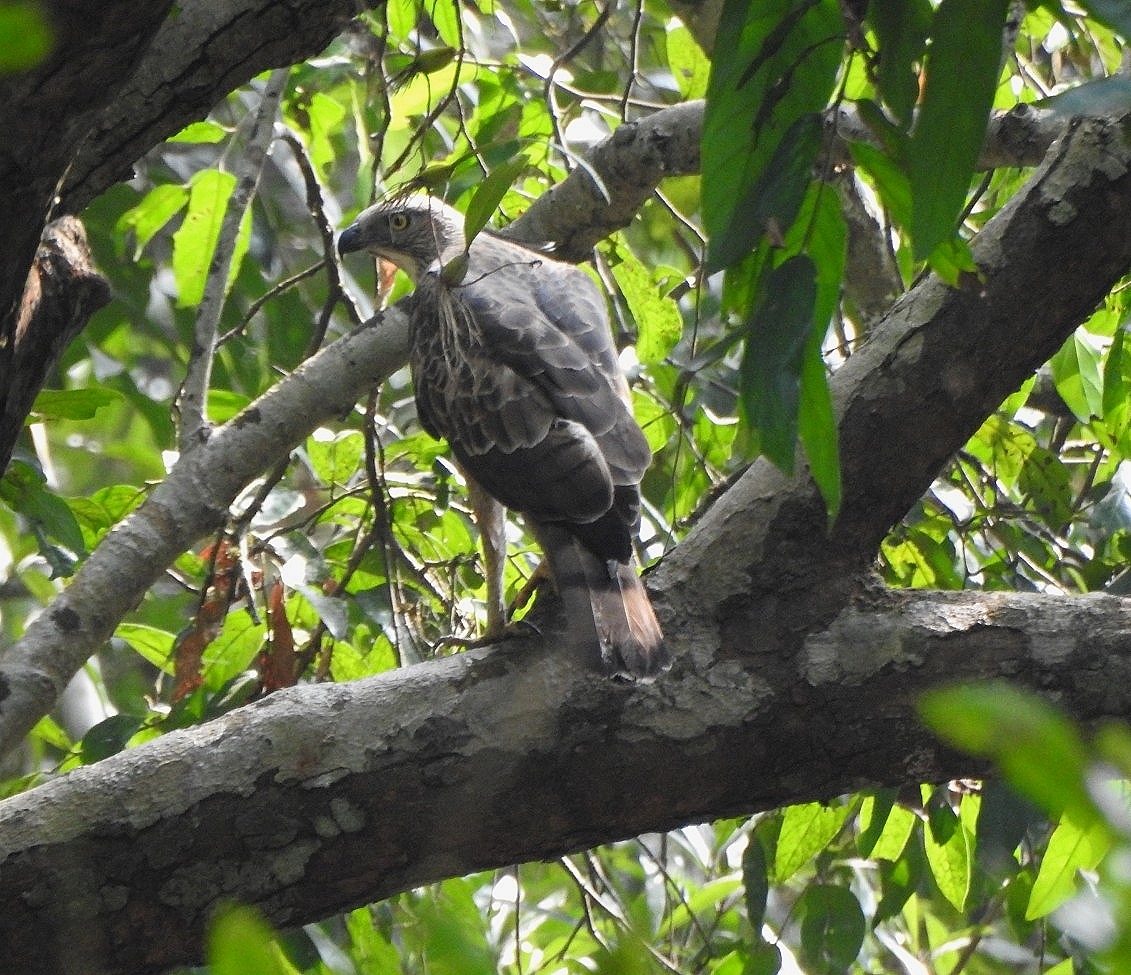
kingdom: Animalia
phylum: Chordata
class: Aves
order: Accipitriformes
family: Accipitridae
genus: Nisaetus
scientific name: Nisaetus cirrhatus
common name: Changeable hawk-eagle
